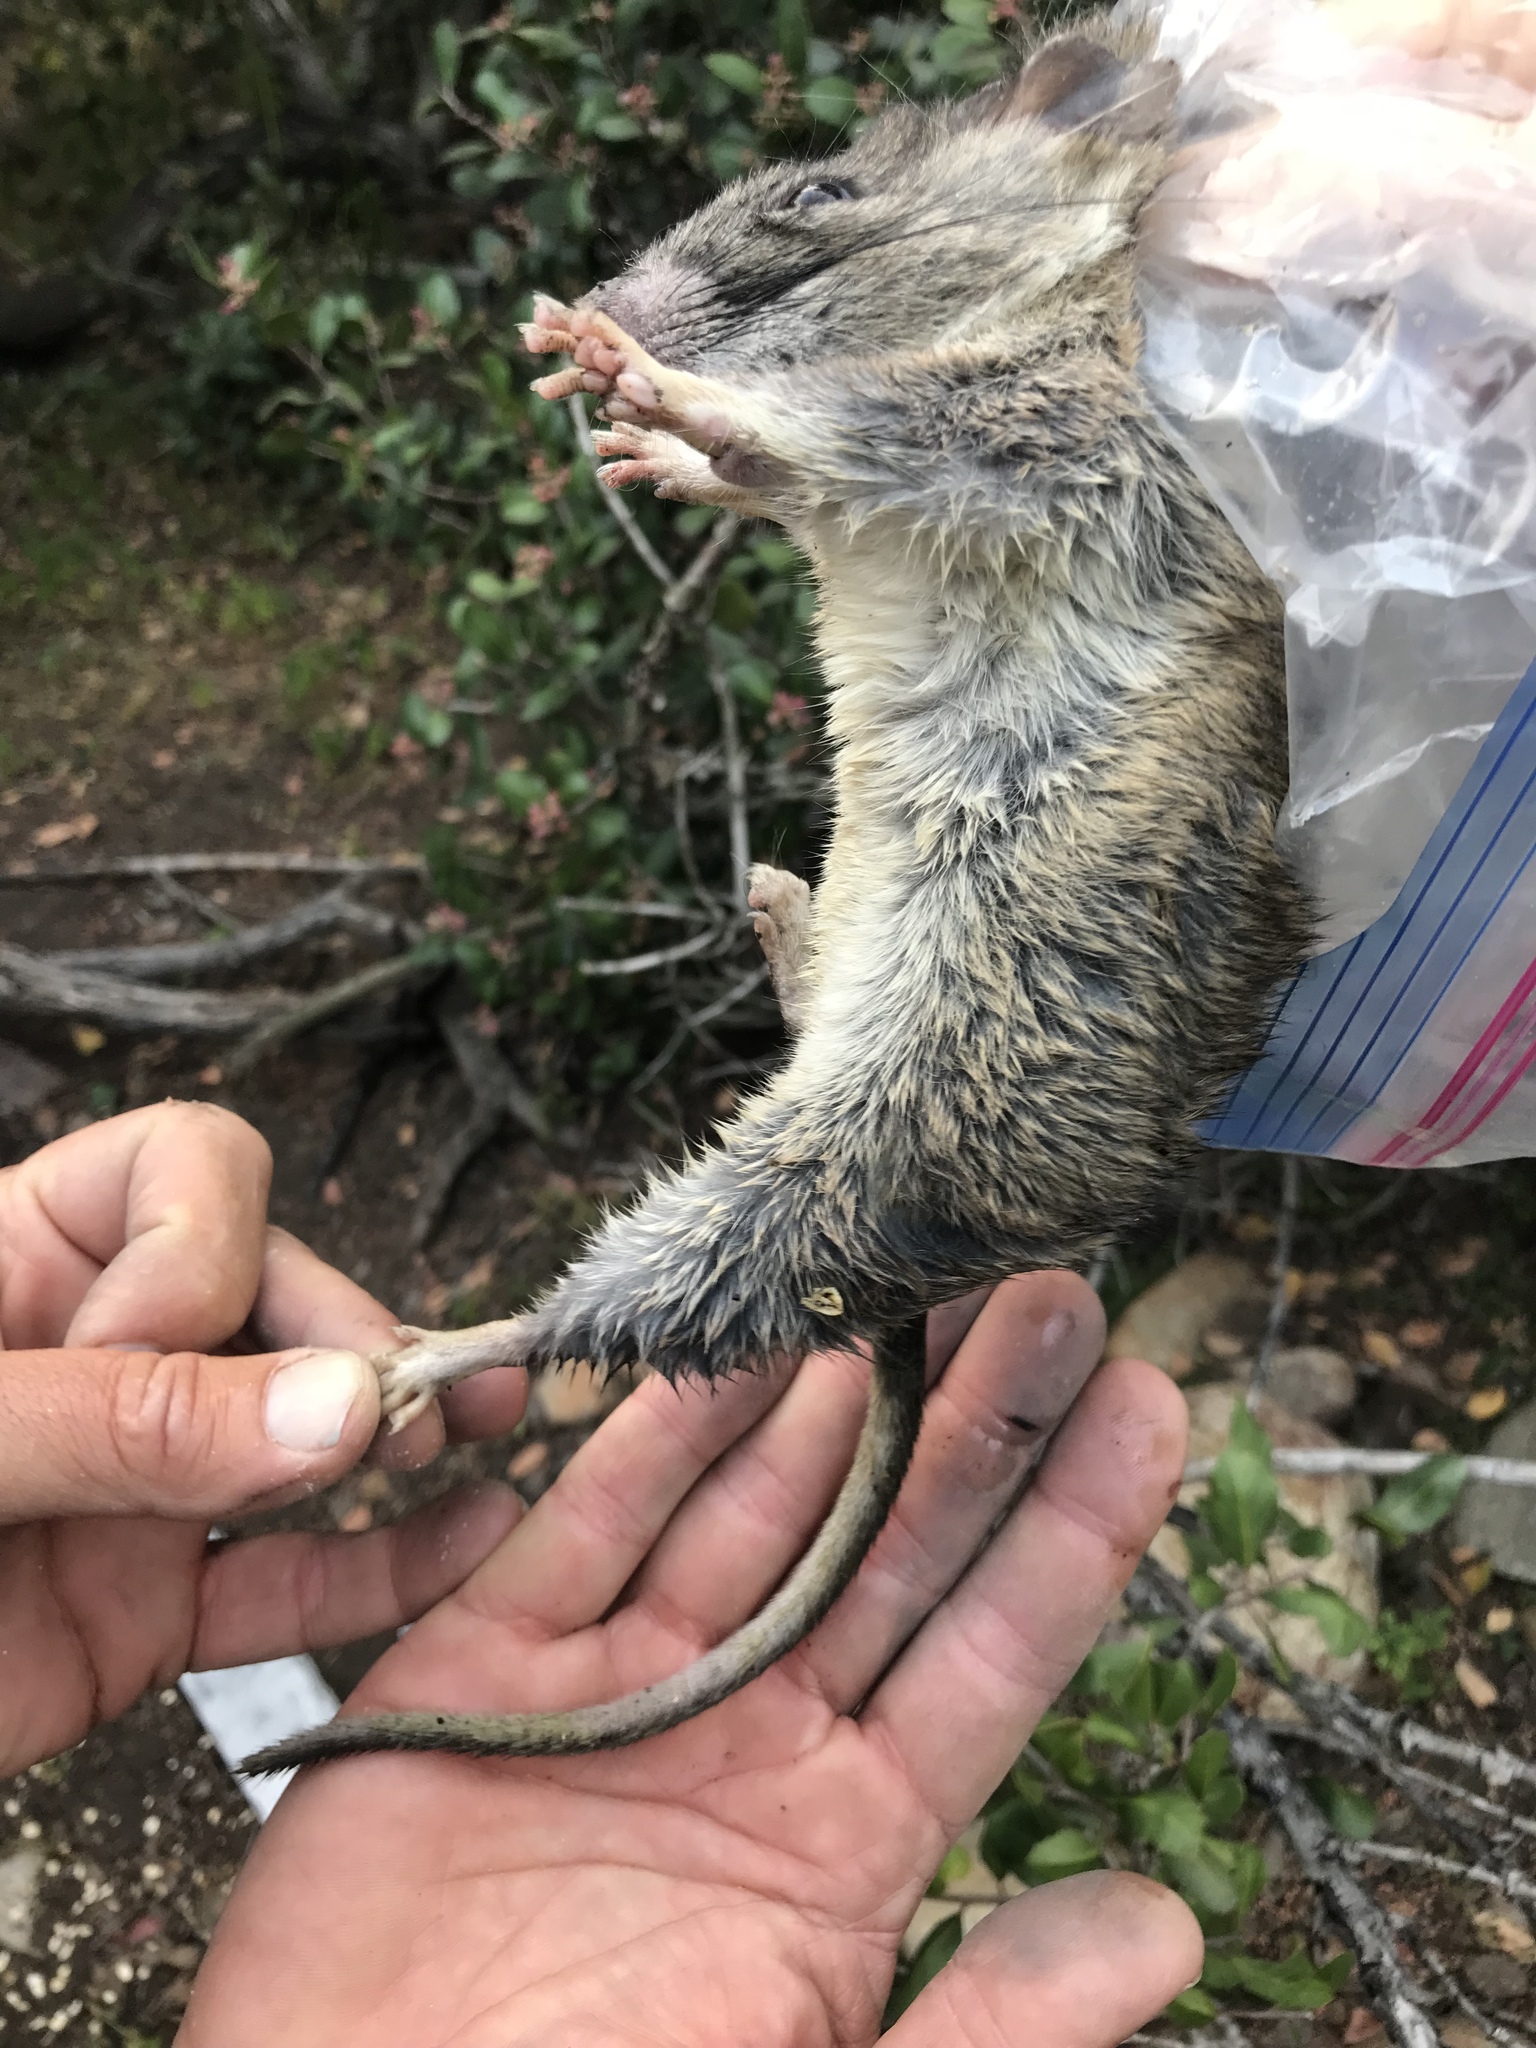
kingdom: Animalia
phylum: Chordata
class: Mammalia
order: Rodentia
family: Cricetidae
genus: Neotoma
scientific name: Neotoma bryanti
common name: Bryant's woodrat
